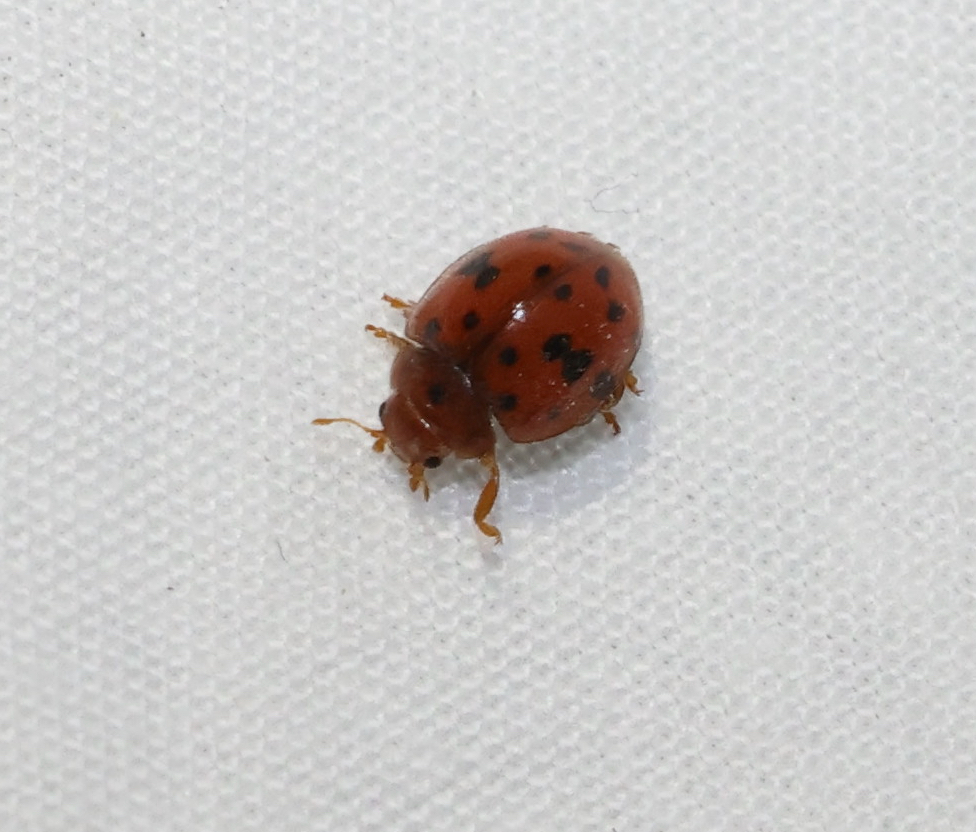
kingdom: Animalia
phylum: Arthropoda
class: Insecta
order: Coleoptera
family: Coccinellidae
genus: Subcoccinella
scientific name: Subcoccinella vigintiquatuorpunctata
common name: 24-spot ladybird
